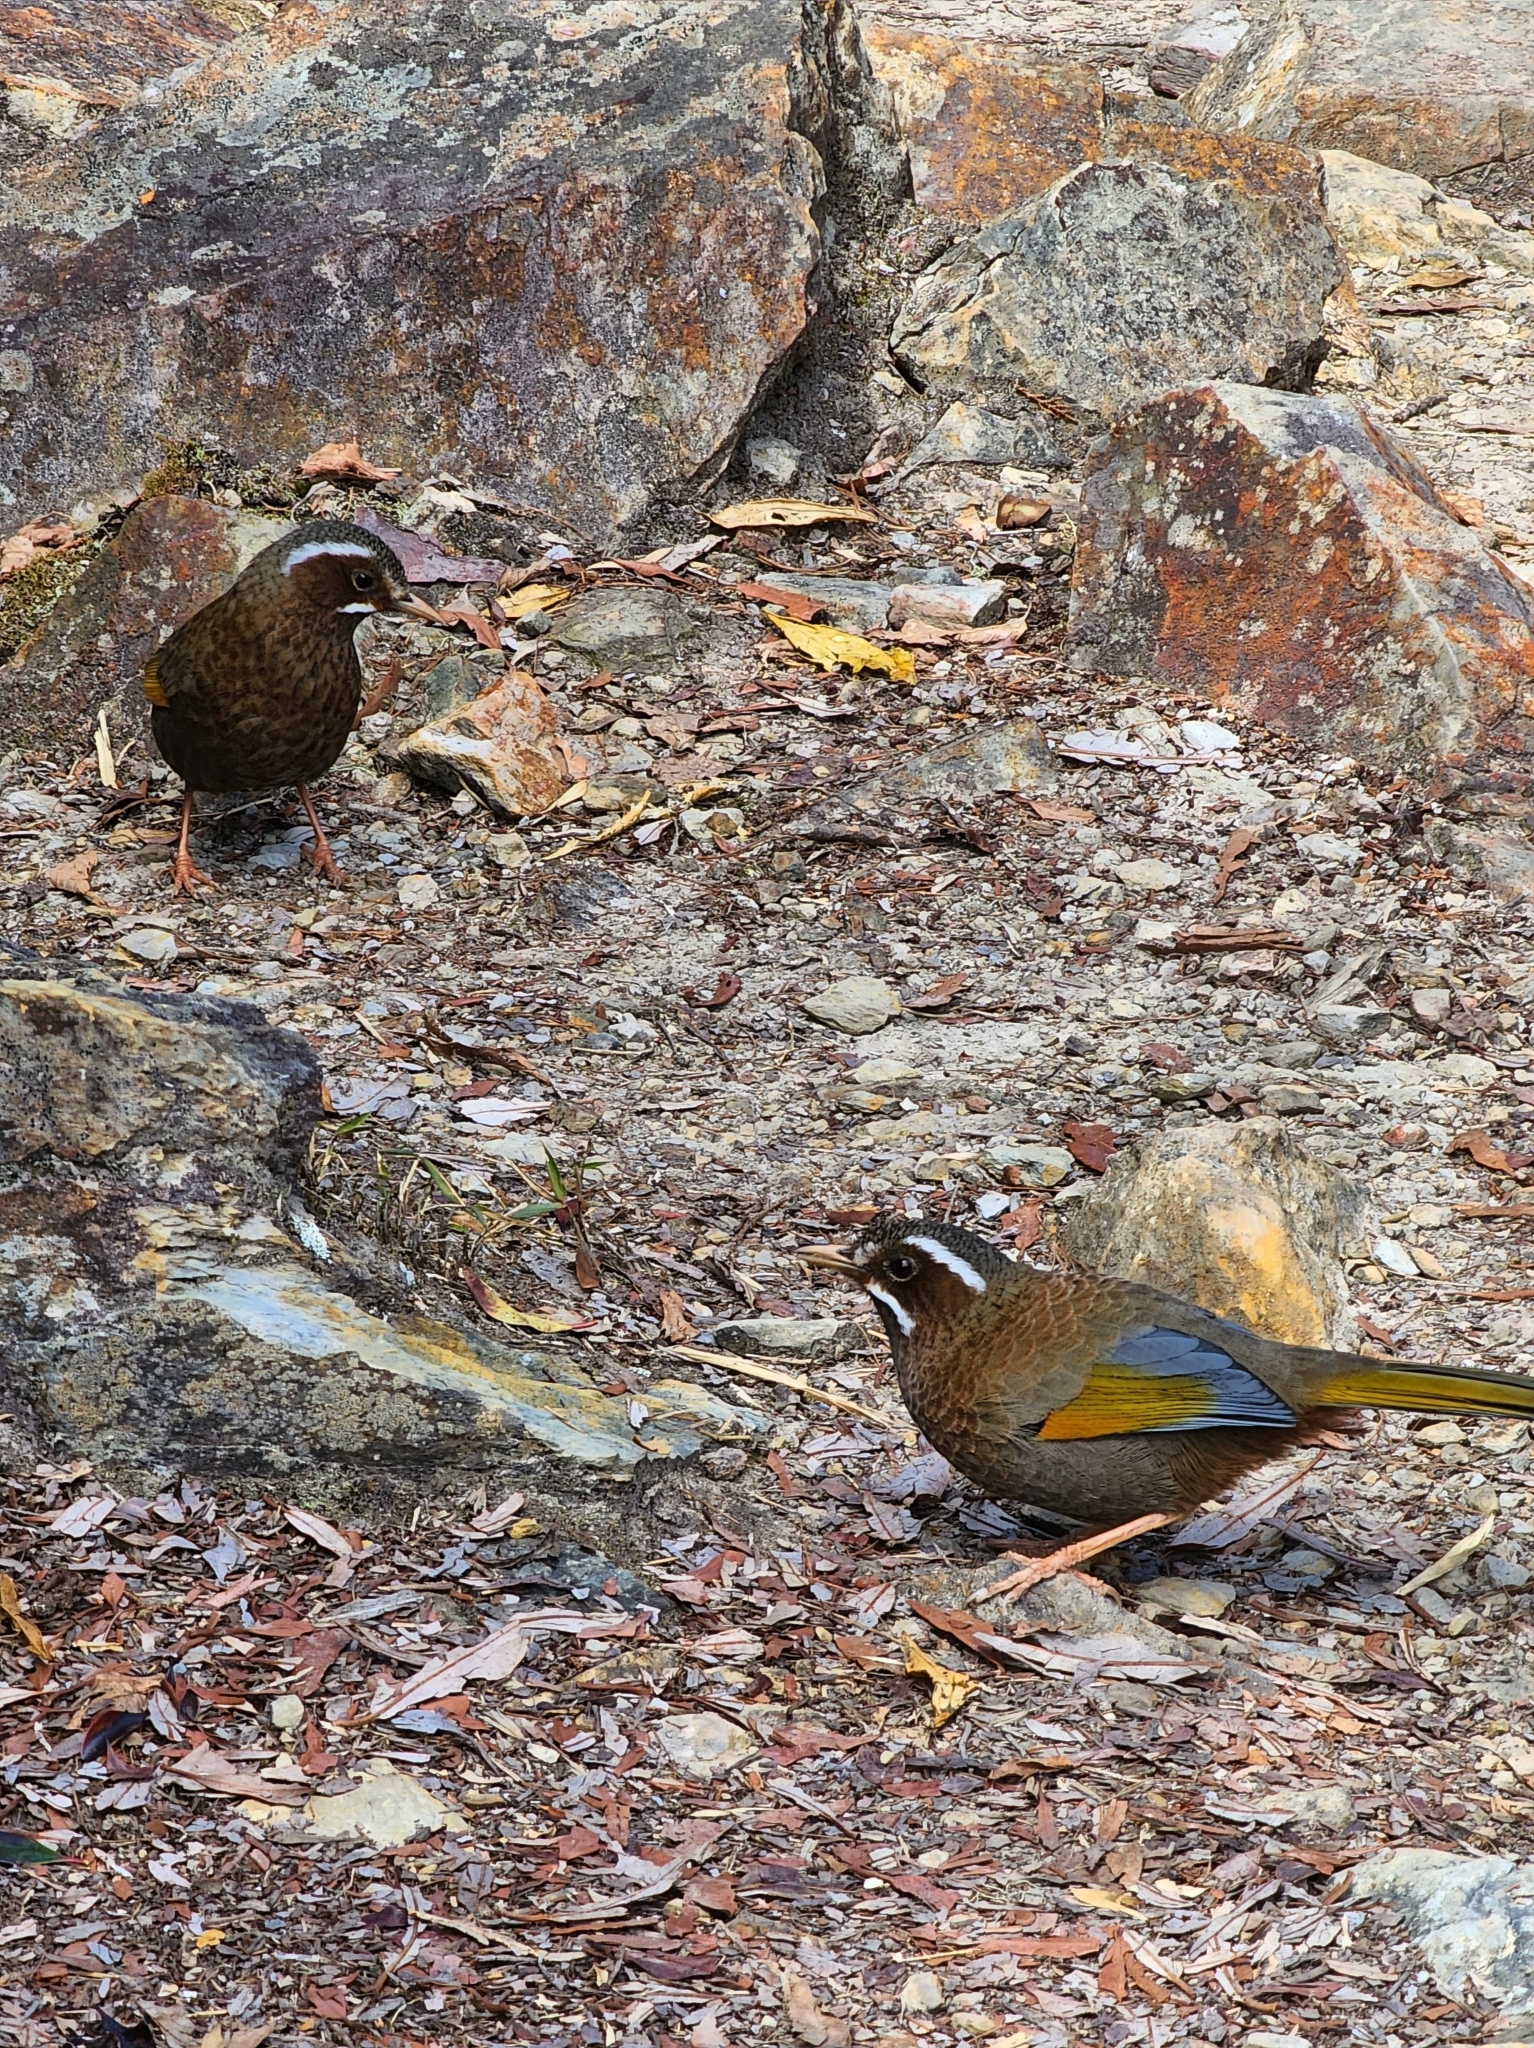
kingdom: Animalia
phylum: Chordata
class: Aves
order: Passeriformes
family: Leiothrichidae
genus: Trochalopteron
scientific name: Trochalopteron morrisonianum
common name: White-whiskered laughingthrush
